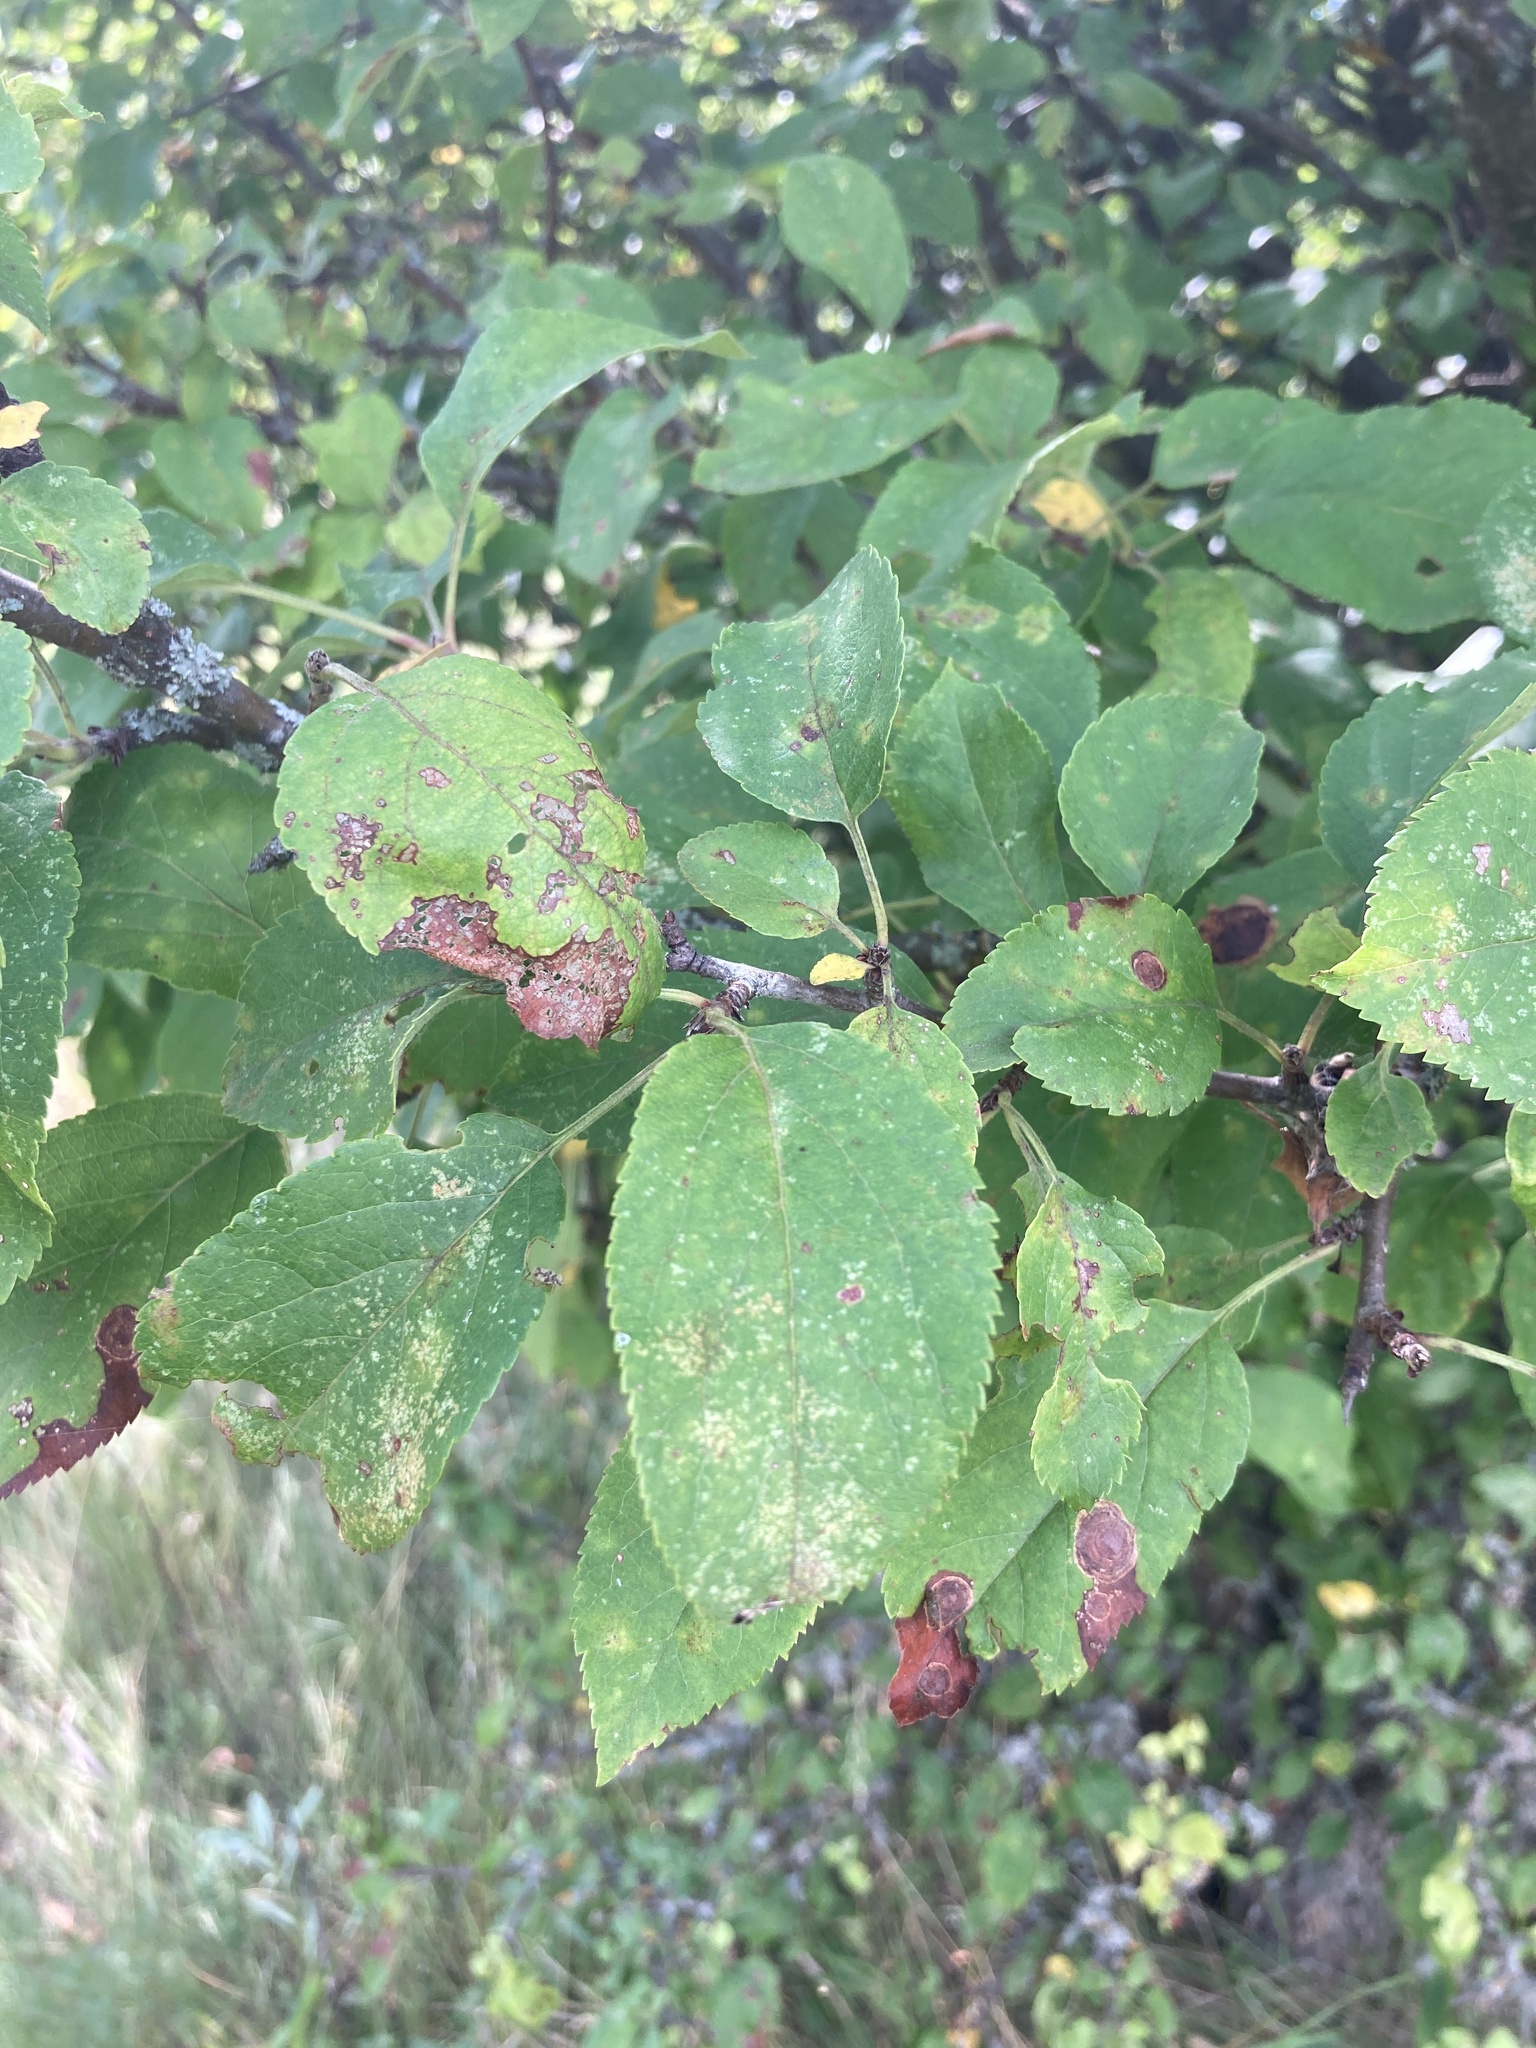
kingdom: Plantae
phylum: Tracheophyta
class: Magnoliopsida
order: Rosales
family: Rosaceae
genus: Malus
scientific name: Malus domestica
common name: Apple
